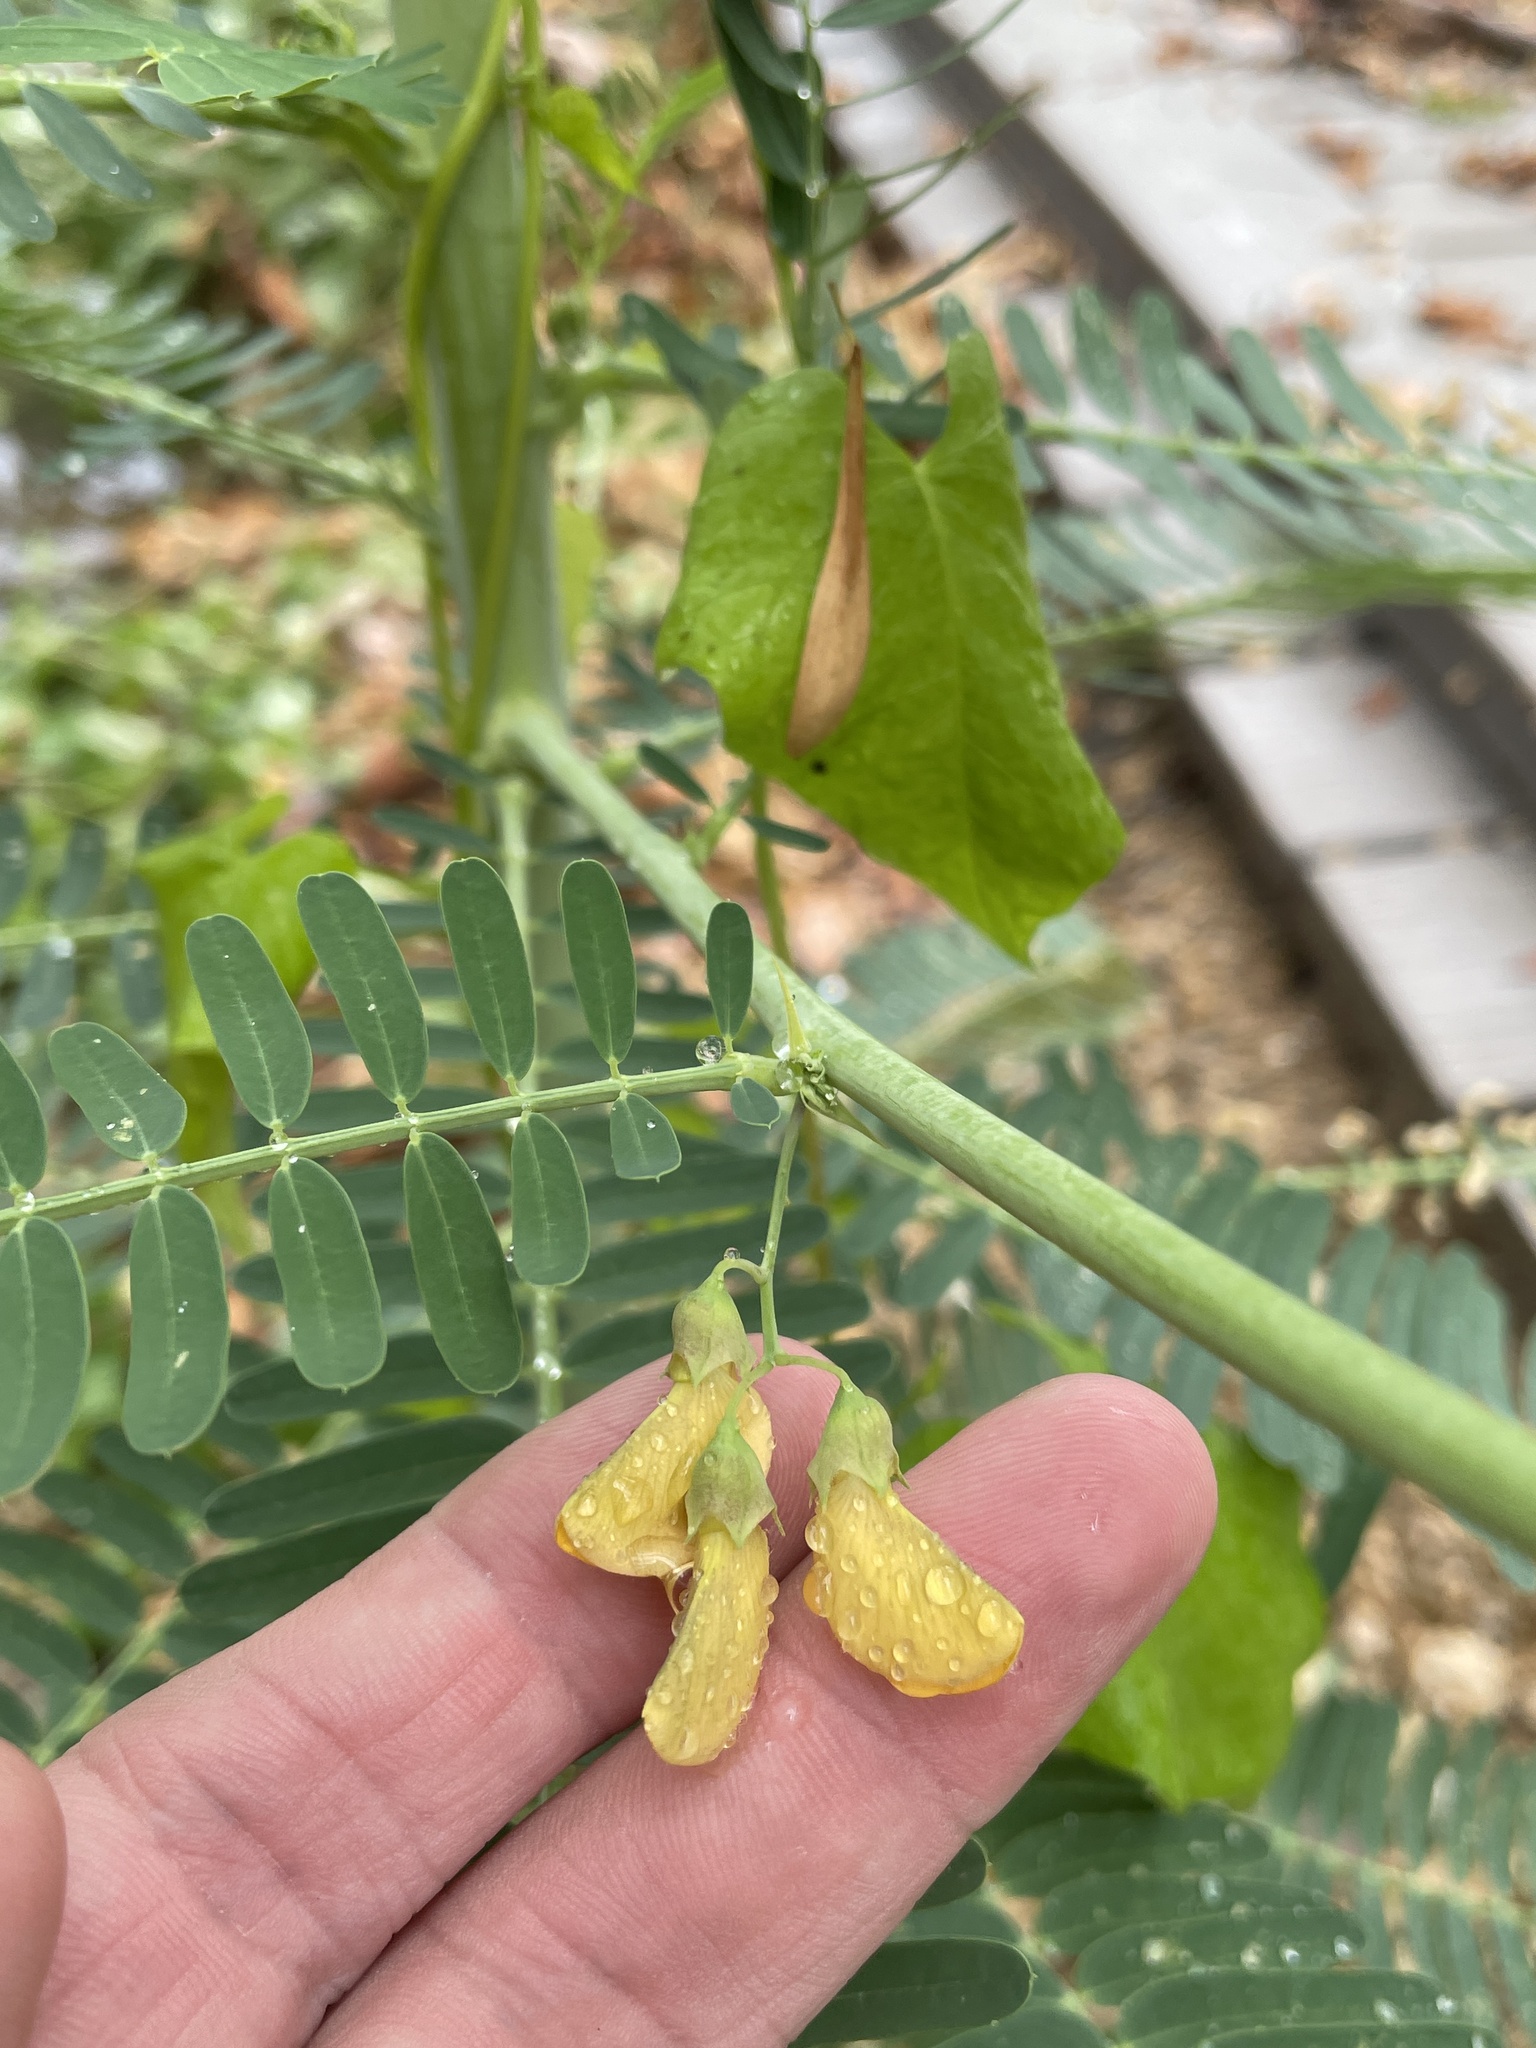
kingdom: Plantae
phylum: Tracheophyta
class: Magnoliopsida
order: Fabales
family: Fabaceae
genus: Sesbania
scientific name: Sesbania herbacea
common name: Bigpod sesbania
